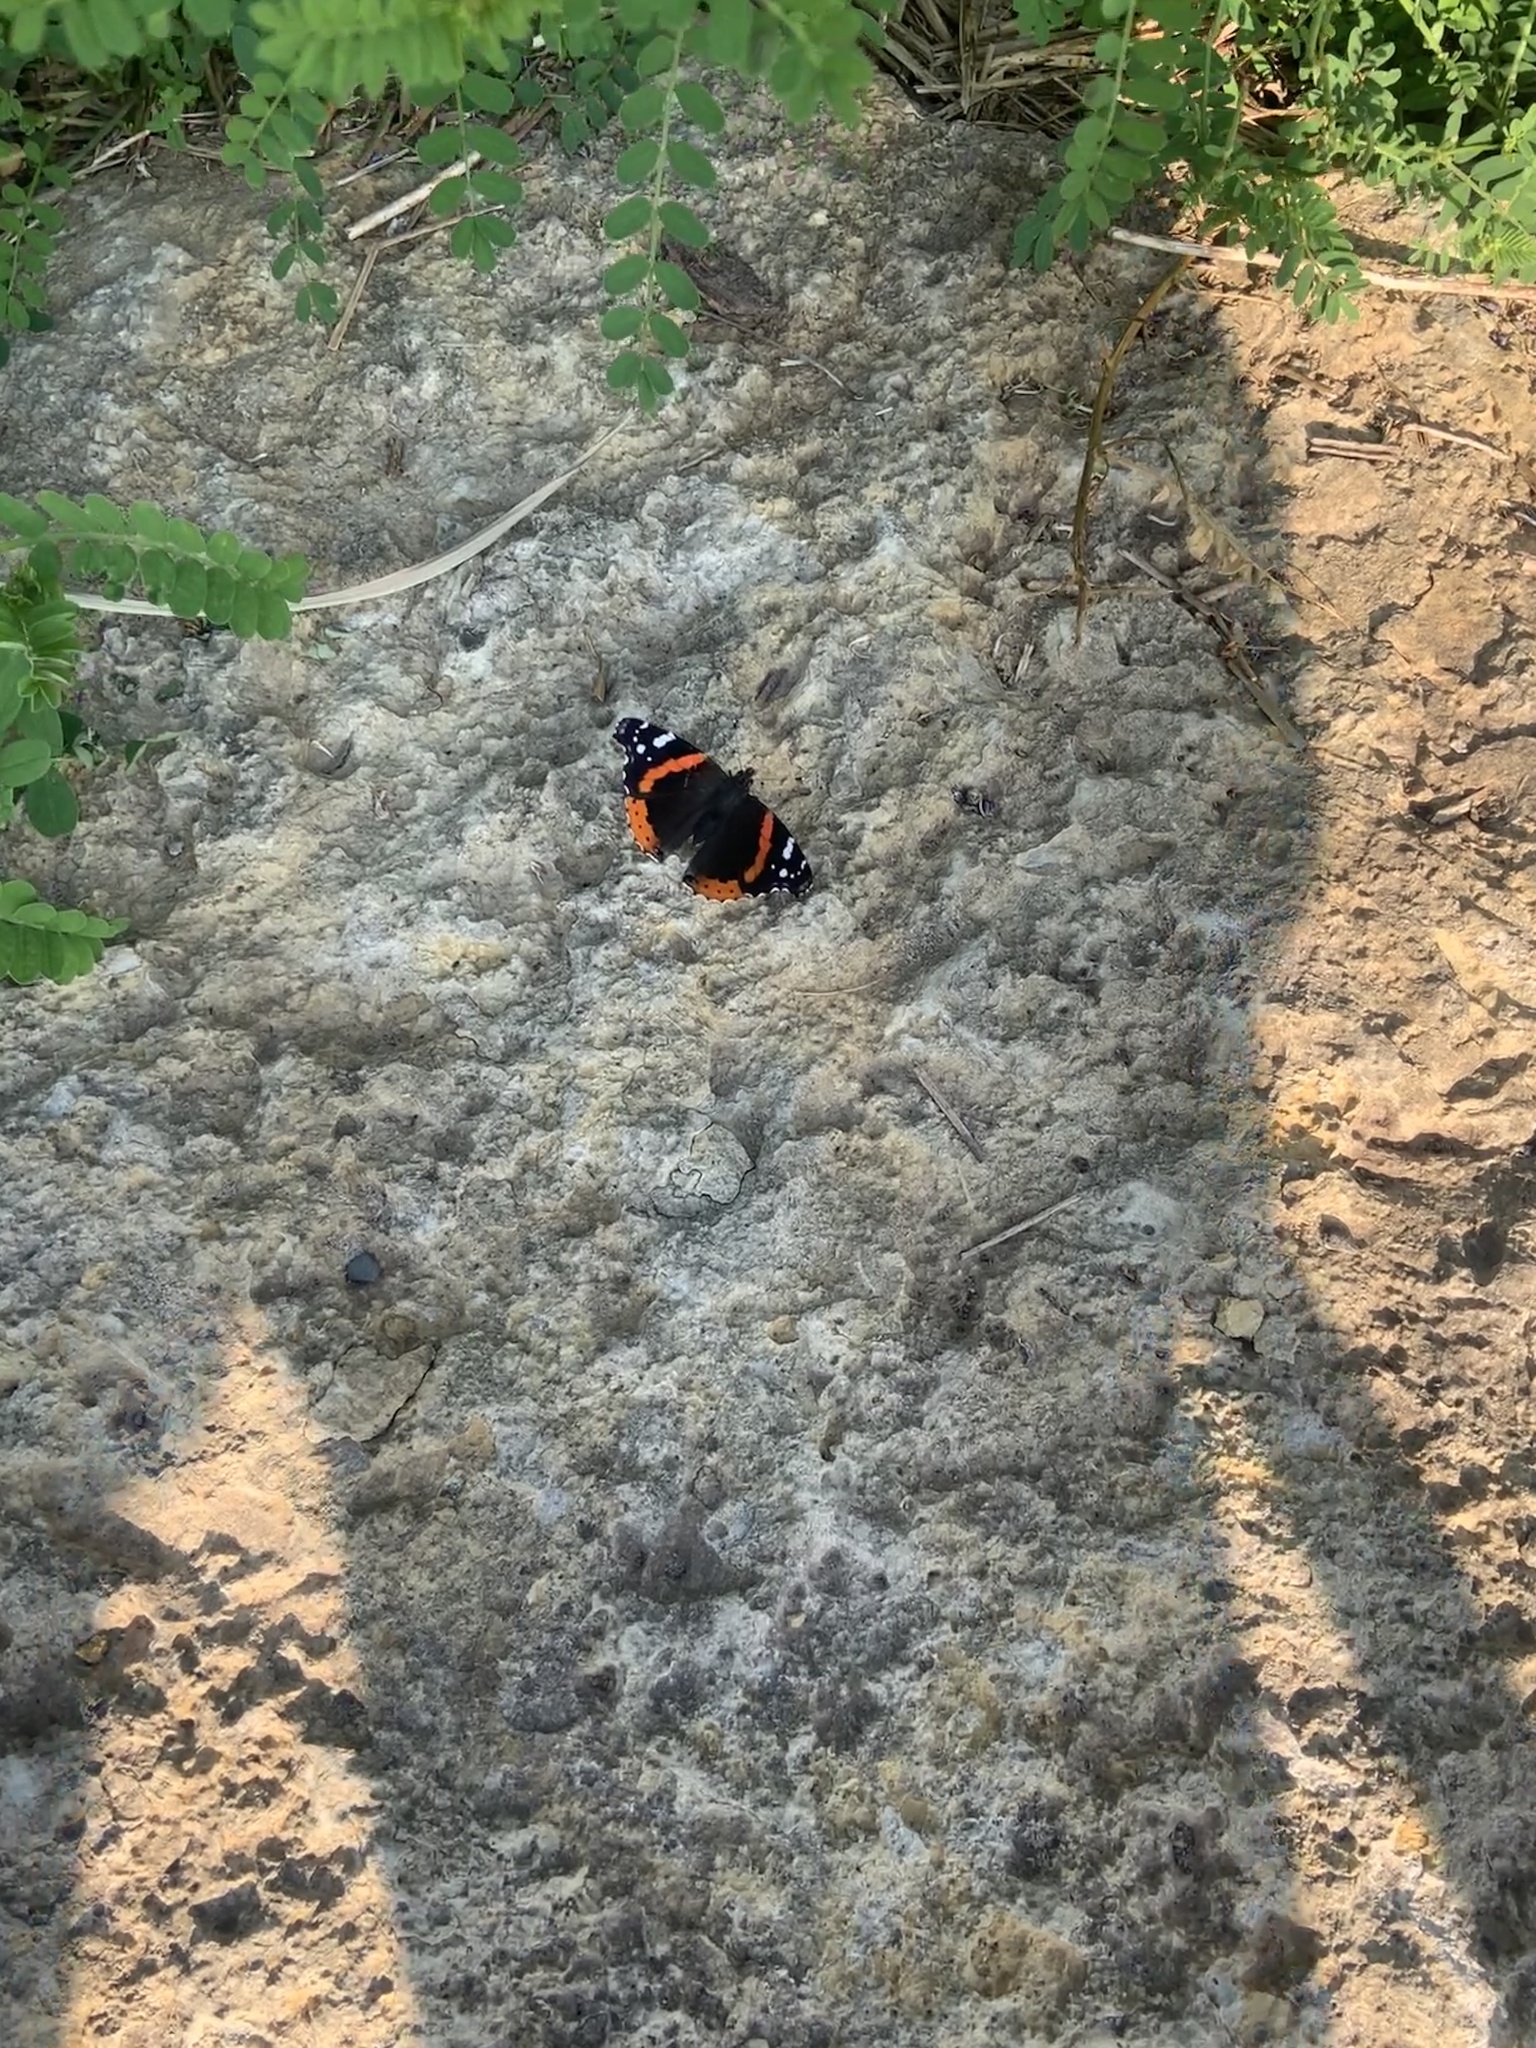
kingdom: Animalia
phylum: Arthropoda
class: Insecta
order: Lepidoptera
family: Nymphalidae
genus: Vanessa
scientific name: Vanessa atalanta
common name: Red admiral
